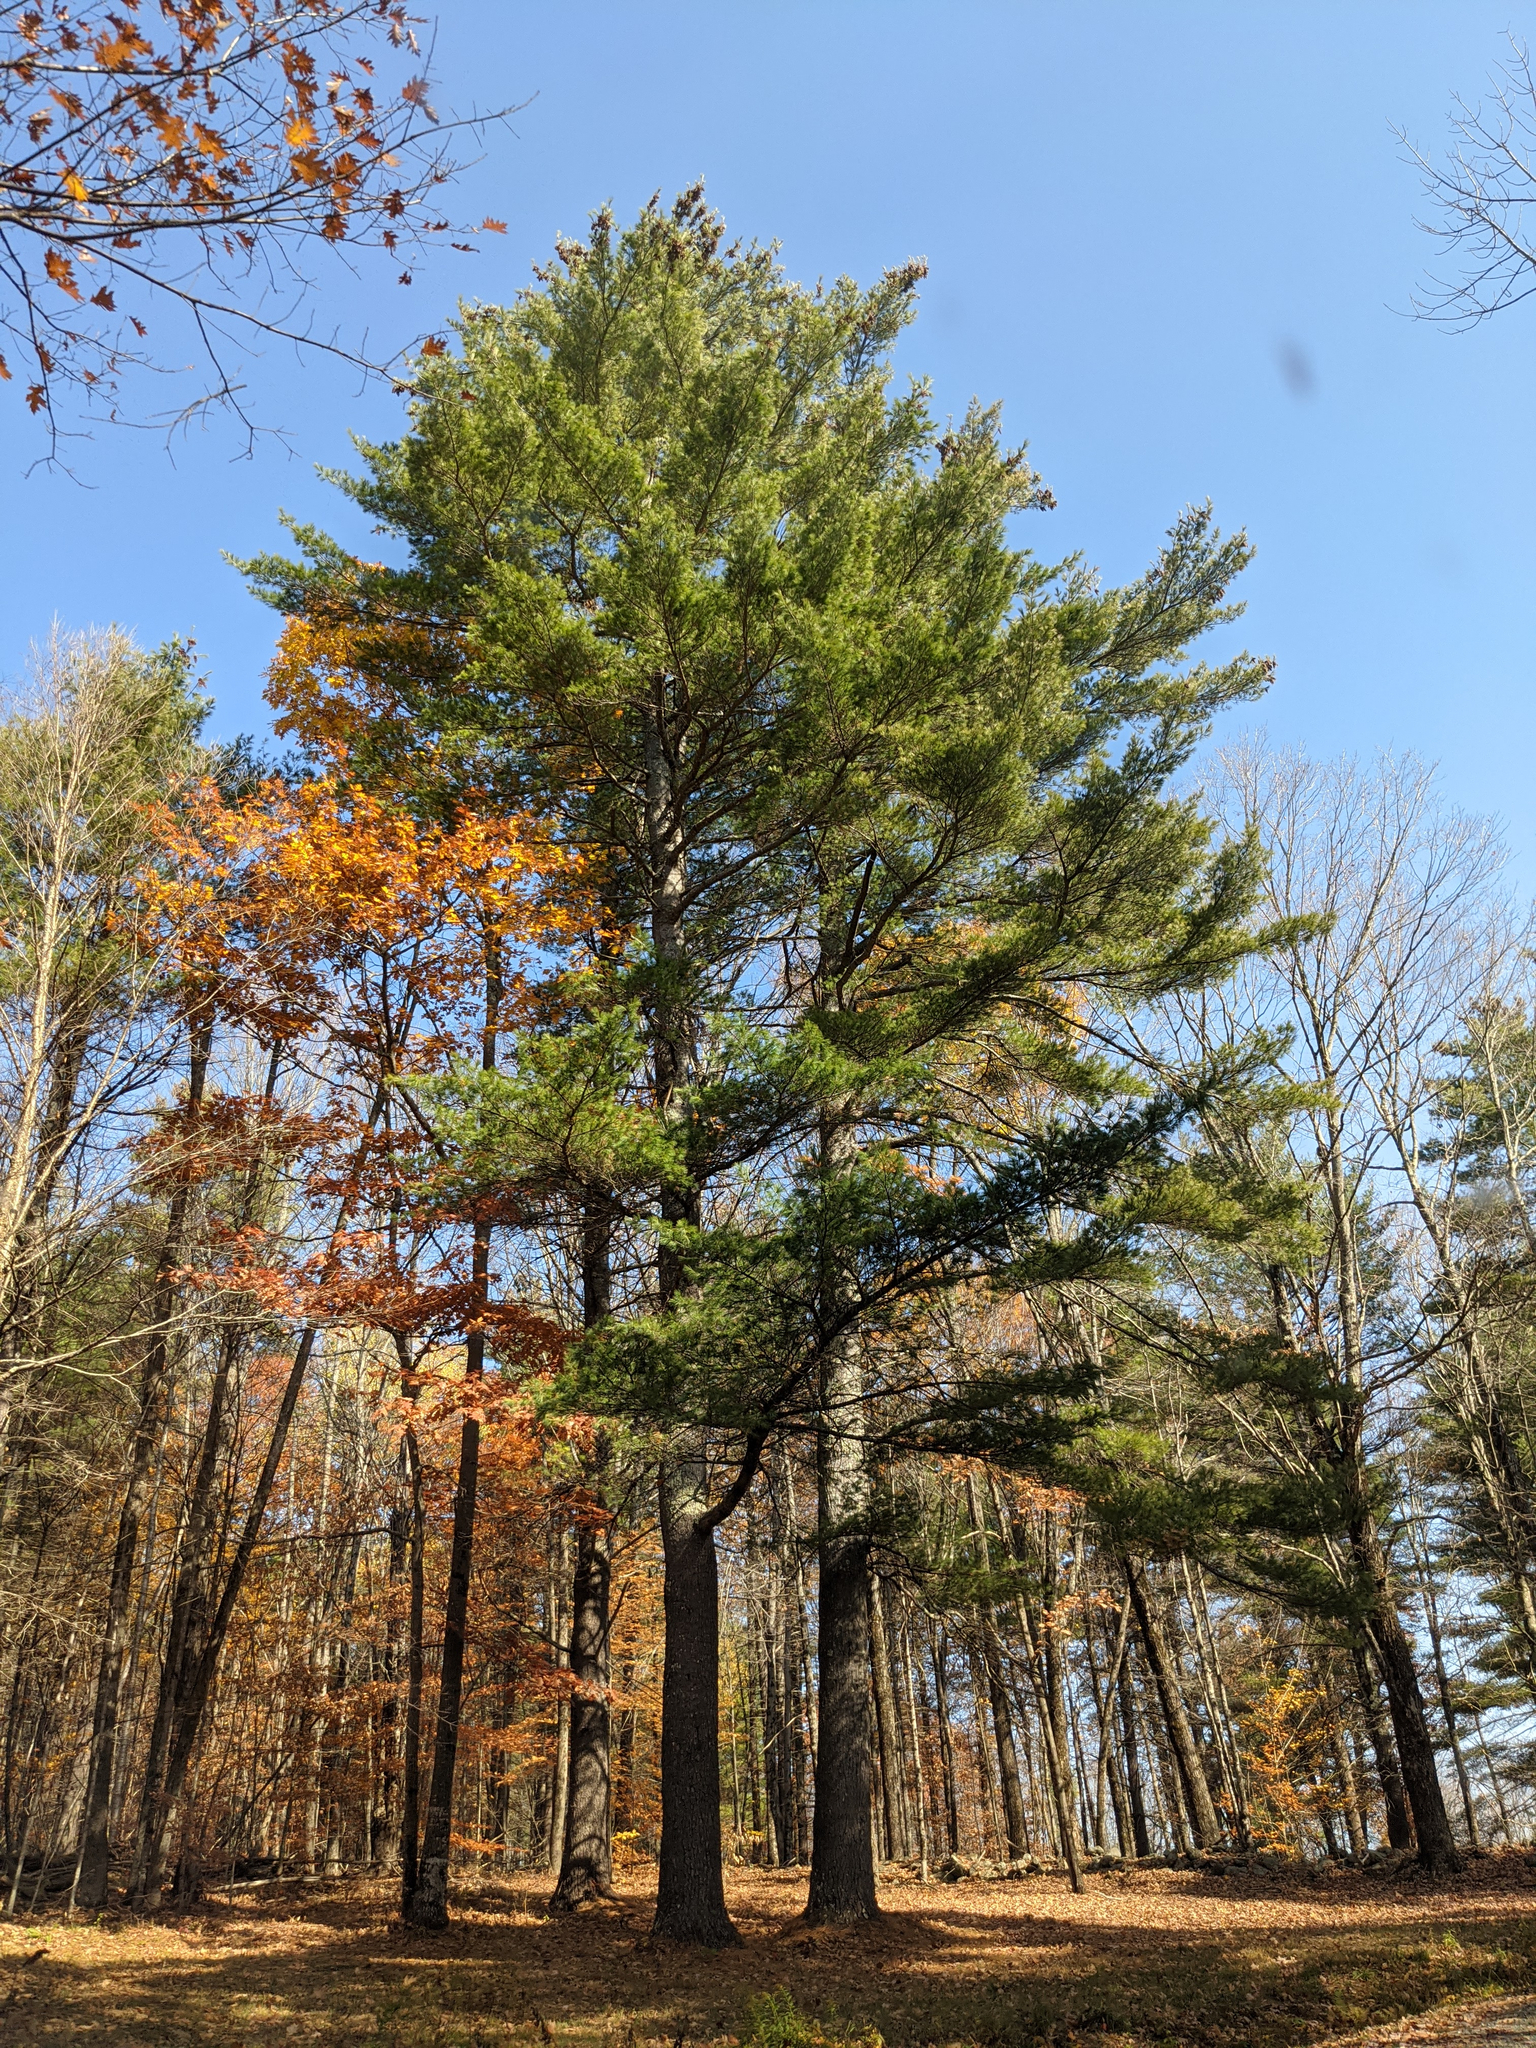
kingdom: Plantae
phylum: Tracheophyta
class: Pinopsida
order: Pinales
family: Pinaceae
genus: Pinus
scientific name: Pinus strobus
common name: Weymouth pine
